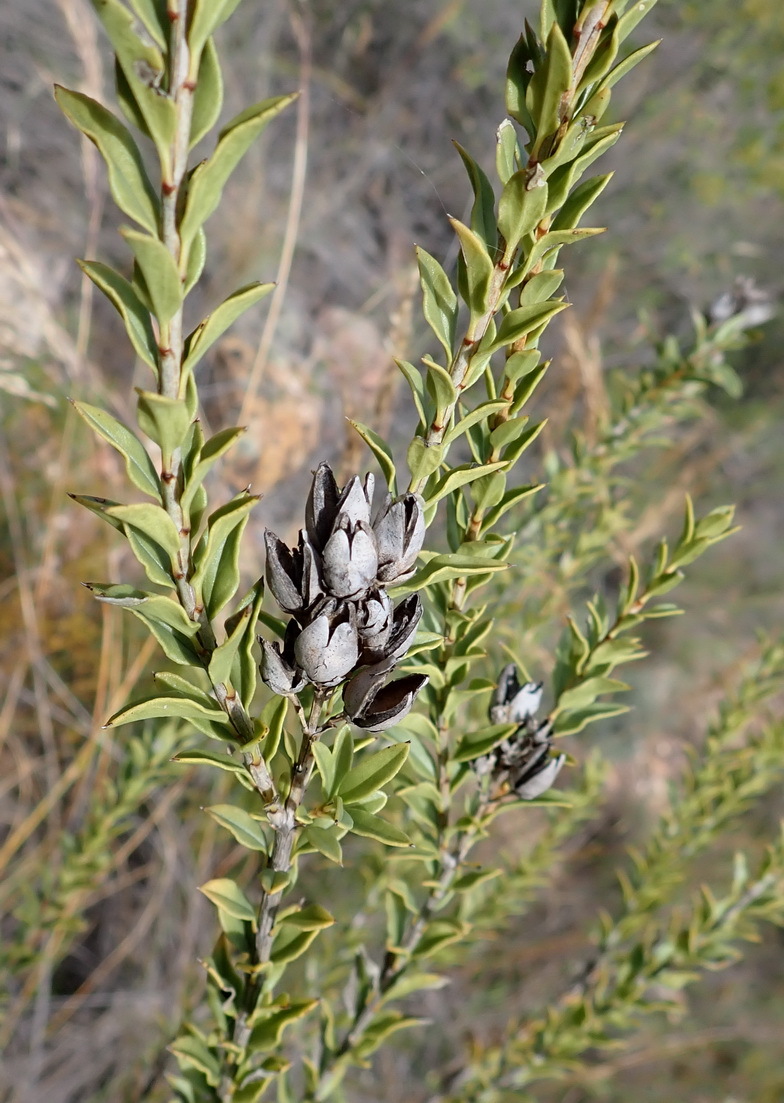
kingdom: Plantae
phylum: Tracheophyta
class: Magnoliopsida
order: Lamiales
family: Scrophulariaceae
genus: Freylinia
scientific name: Freylinia densiflora
